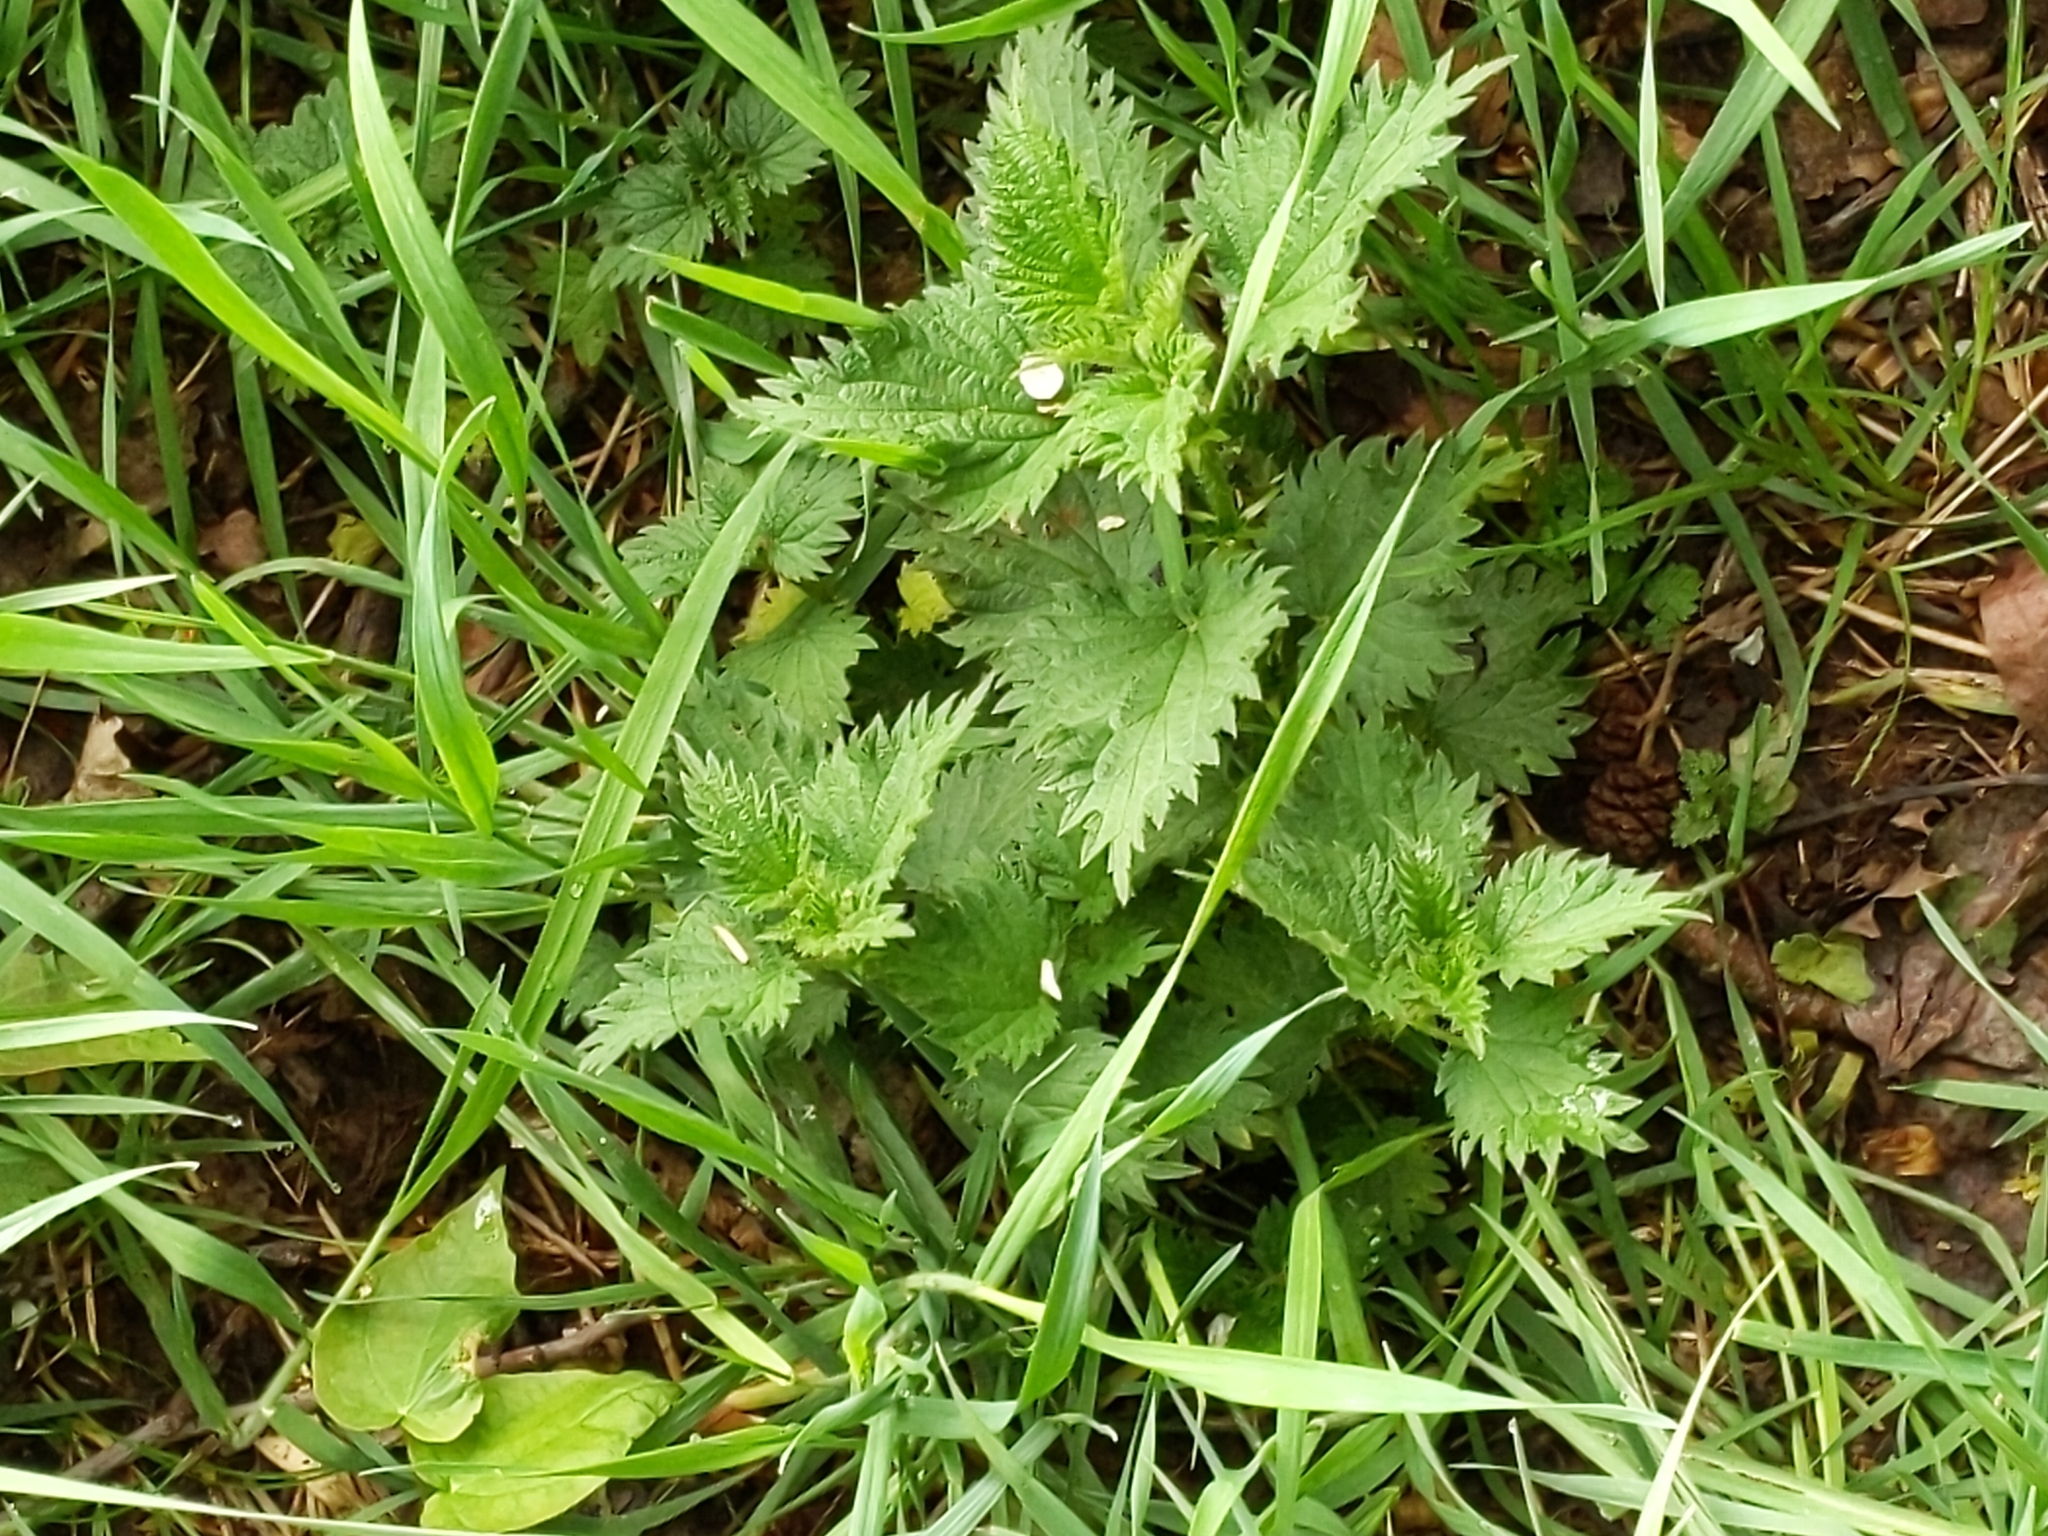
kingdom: Plantae
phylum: Tracheophyta
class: Magnoliopsida
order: Rosales
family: Urticaceae
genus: Urtica
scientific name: Urtica dioica
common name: Common nettle
